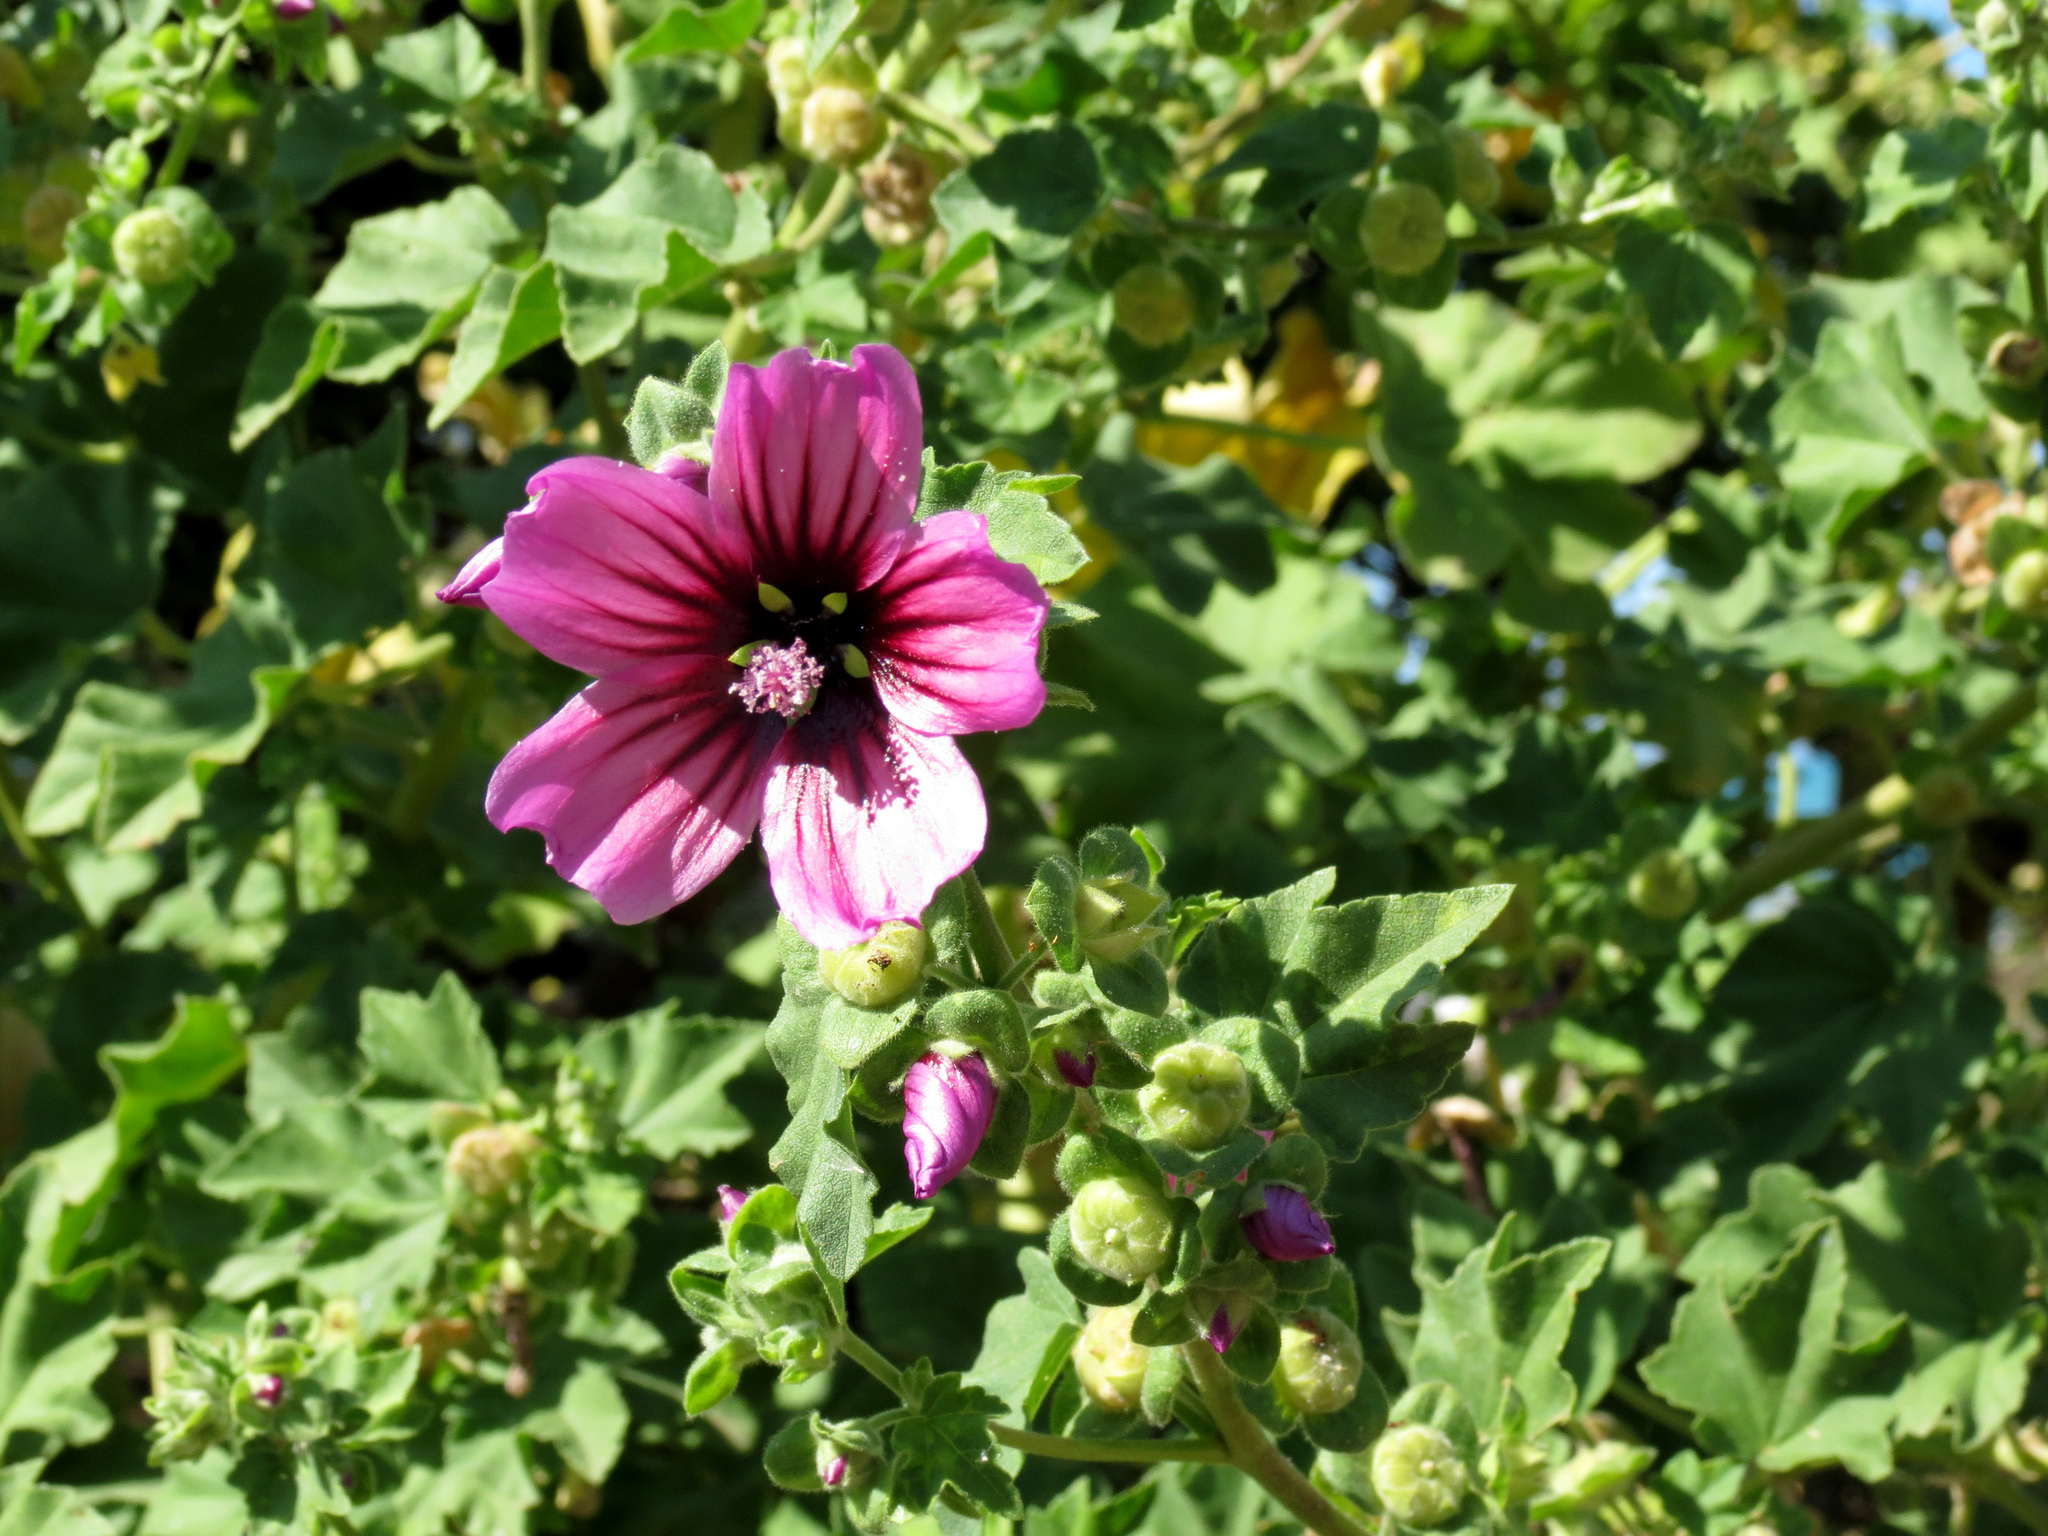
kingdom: Plantae
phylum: Tracheophyta
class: Magnoliopsida
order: Malvales
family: Malvaceae
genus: Malva
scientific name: Malva arborea
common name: Tree mallow
